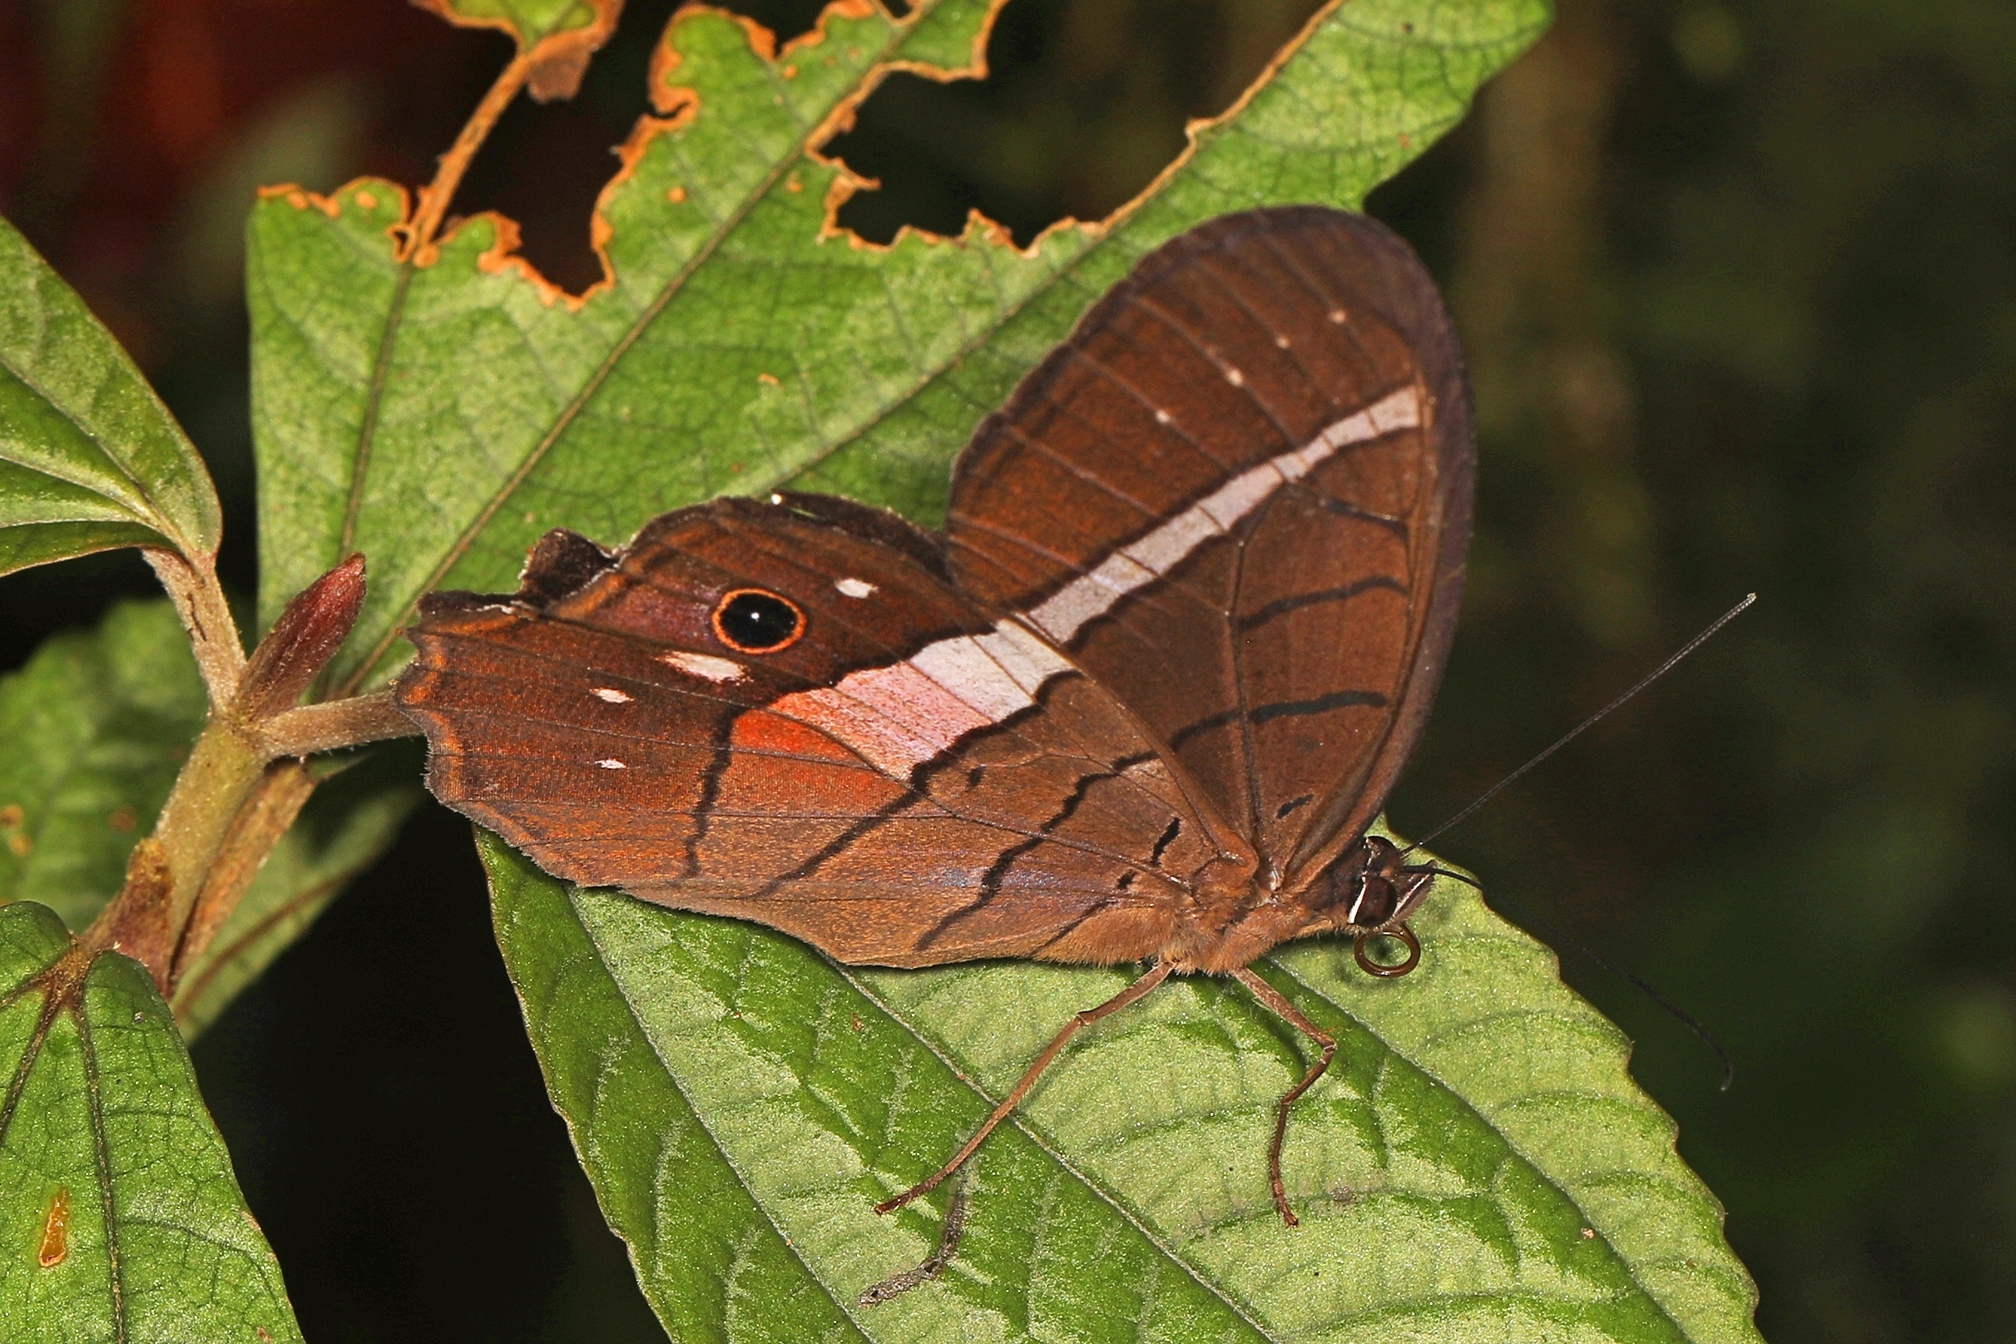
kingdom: Animalia
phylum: Arthropoda
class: Insecta
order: Lepidoptera
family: Nymphalidae
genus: Pierella
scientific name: Pierella helvina
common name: Red-washed satyr
